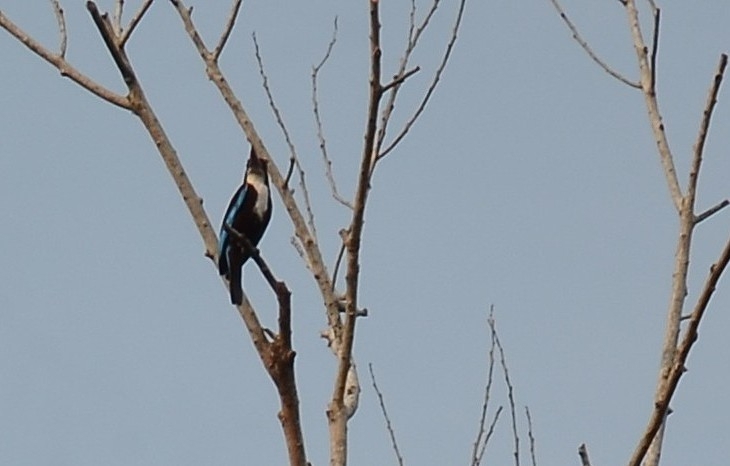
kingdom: Animalia
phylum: Chordata
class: Aves
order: Coraciiformes
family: Alcedinidae
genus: Halcyon
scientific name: Halcyon smyrnensis
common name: White-throated kingfisher
